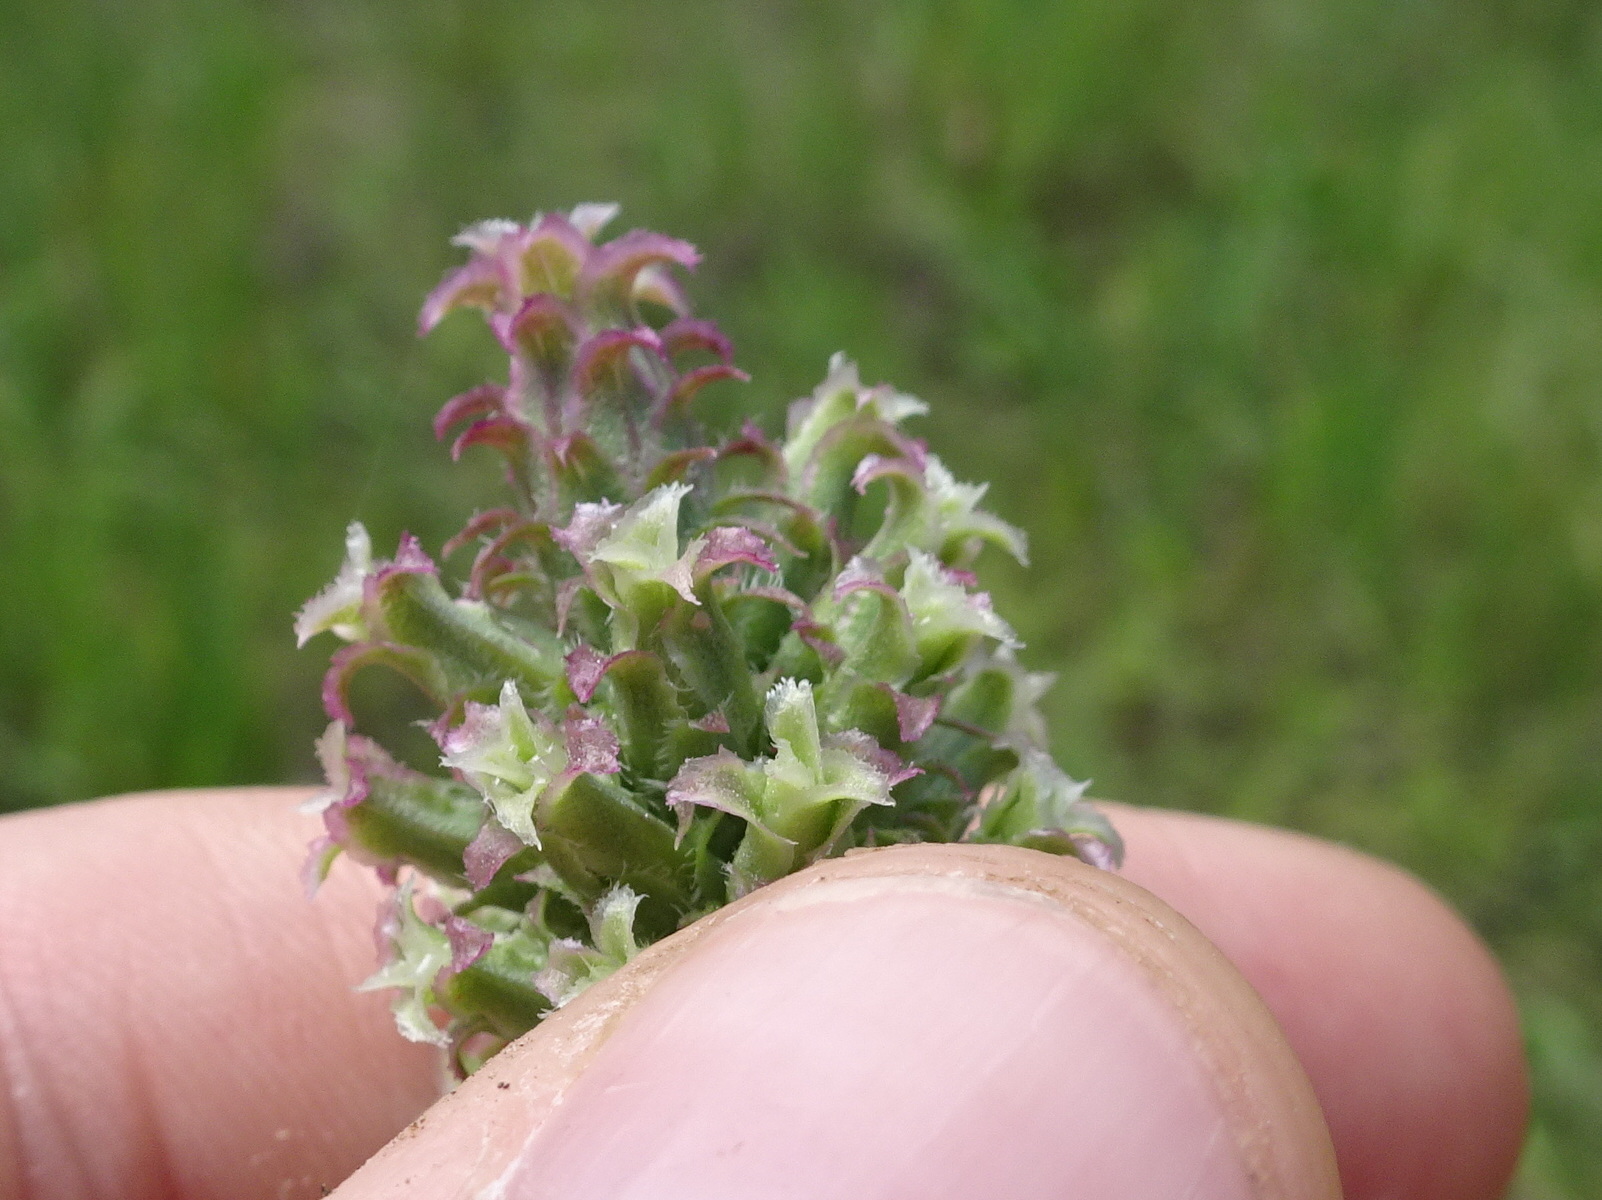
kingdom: Plantae
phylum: Tracheophyta
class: Magnoliopsida
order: Asterales
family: Asteraceae
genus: Liatris
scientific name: Liatris pycnostachya
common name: Cattail gayfeather
